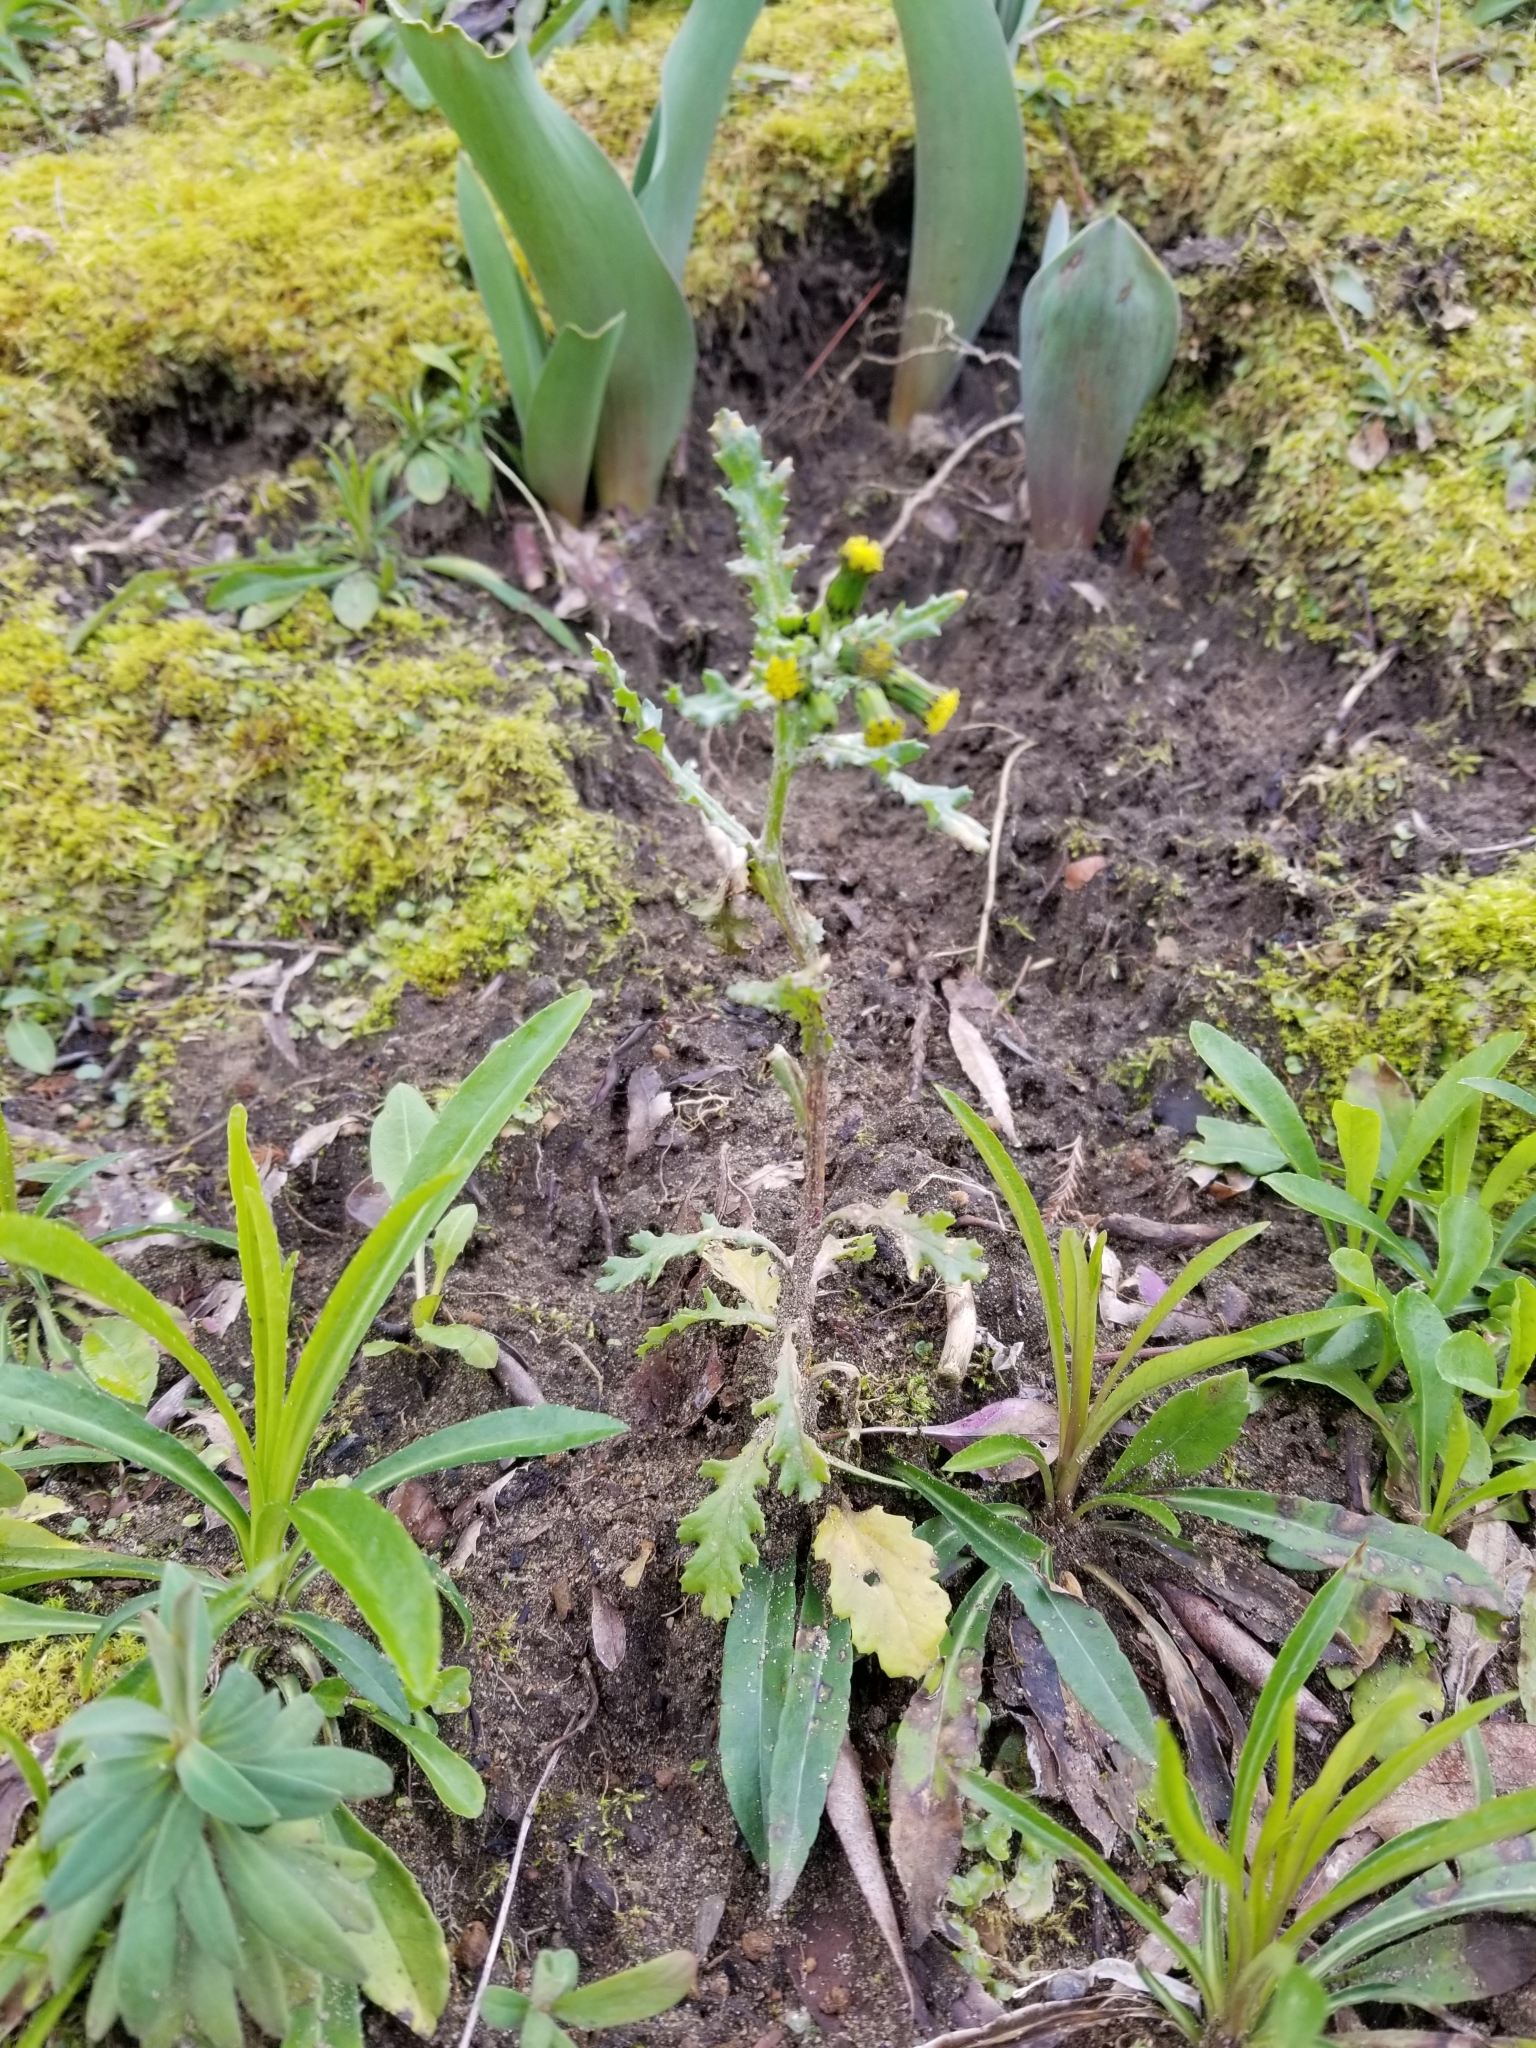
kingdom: Plantae
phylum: Tracheophyta
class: Magnoliopsida
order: Asterales
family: Asteraceae
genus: Senecio
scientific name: Senecio vulgaris
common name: Old-man-in-the-spring
